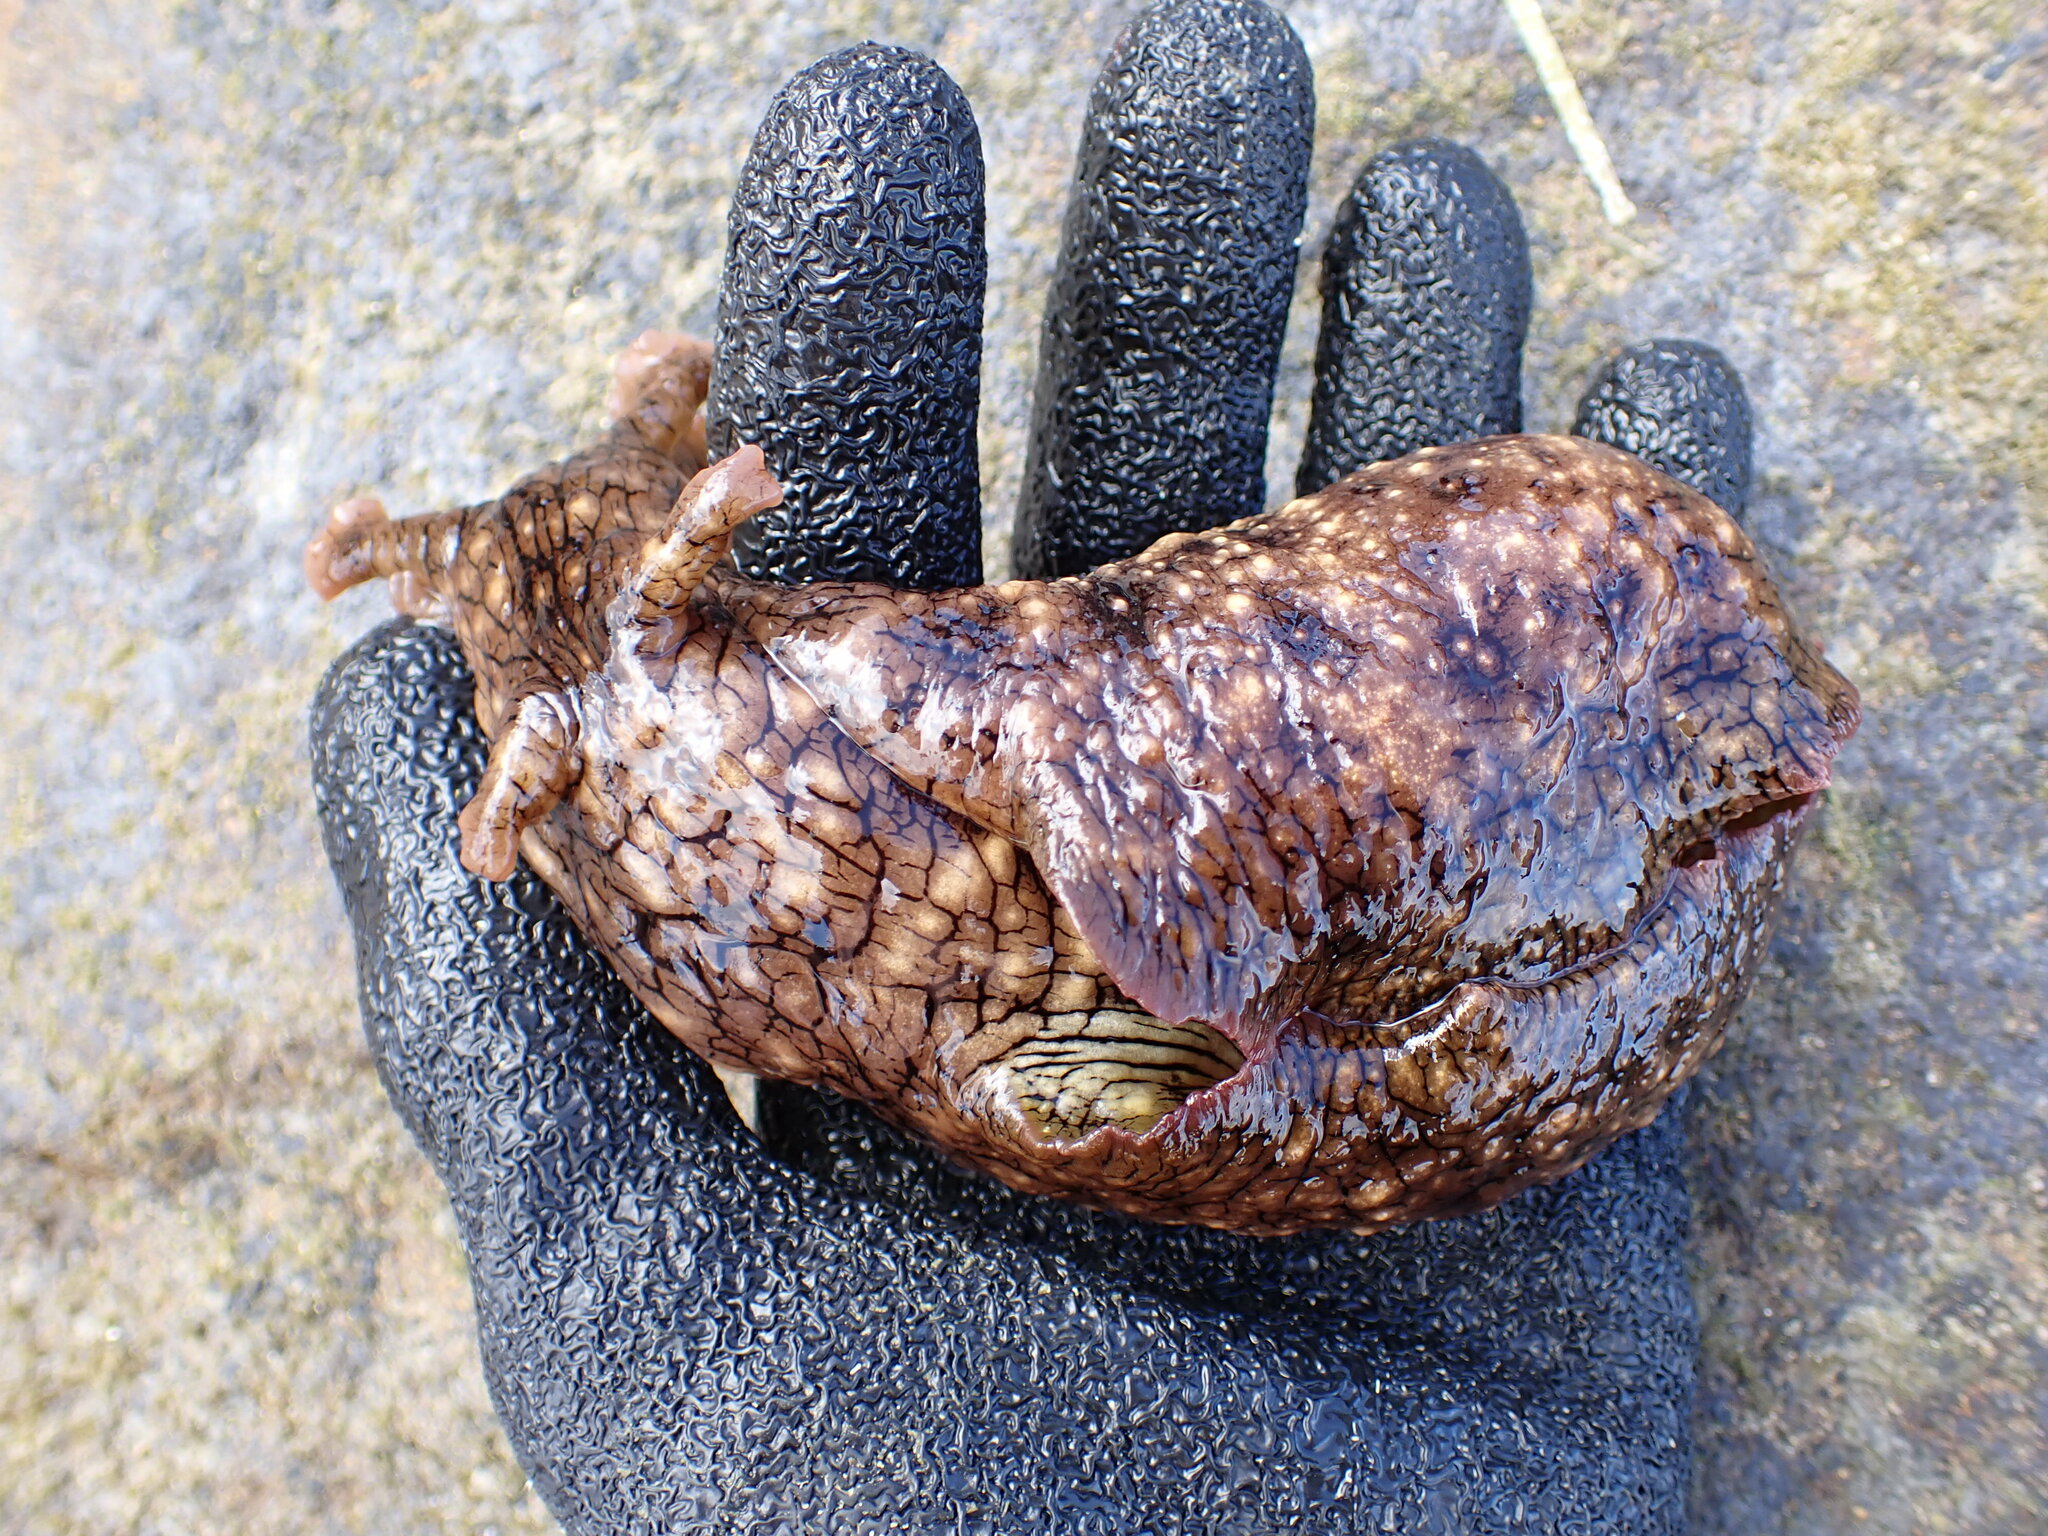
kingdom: Animalia
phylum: Mollusca
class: Gastropoda
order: Aplysiida
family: Aplysiidae
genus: Aplysia
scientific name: Aplysia argus
